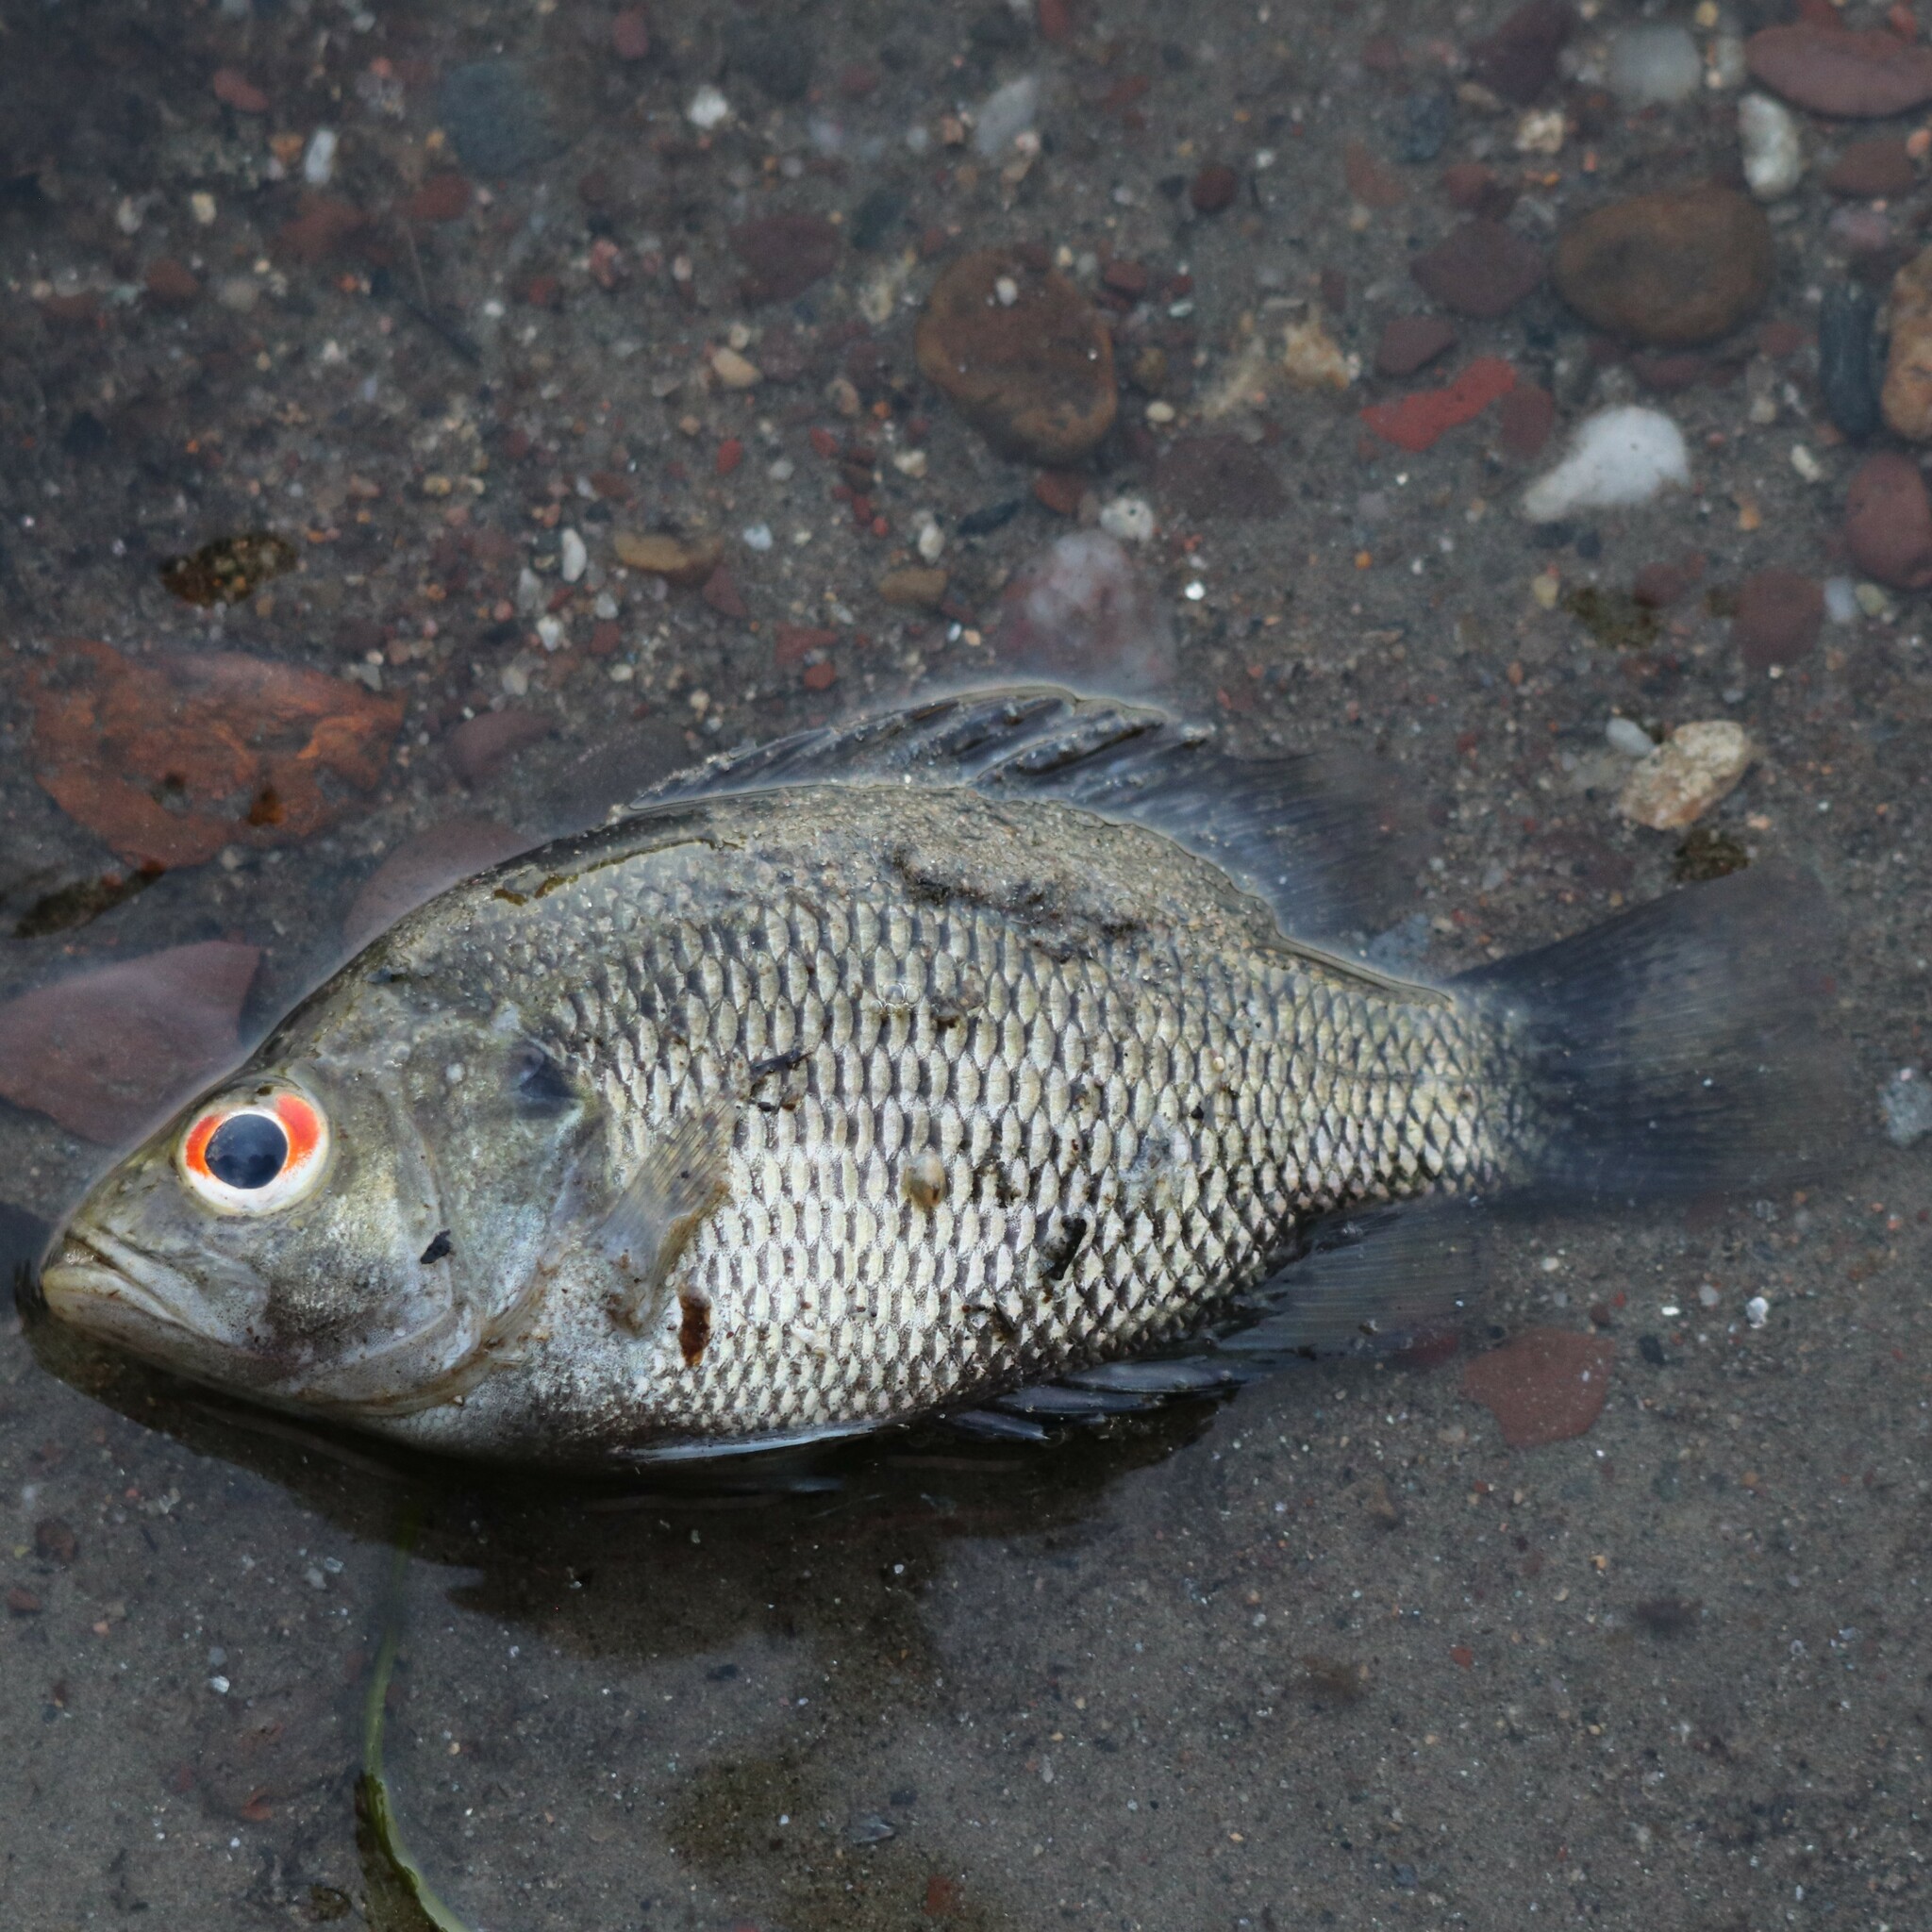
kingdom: Animalia
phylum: Chordata
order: Perciformes
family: Centrarchidae
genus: Ambloplites
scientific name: Ambloplites rupestris
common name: Rock bass
